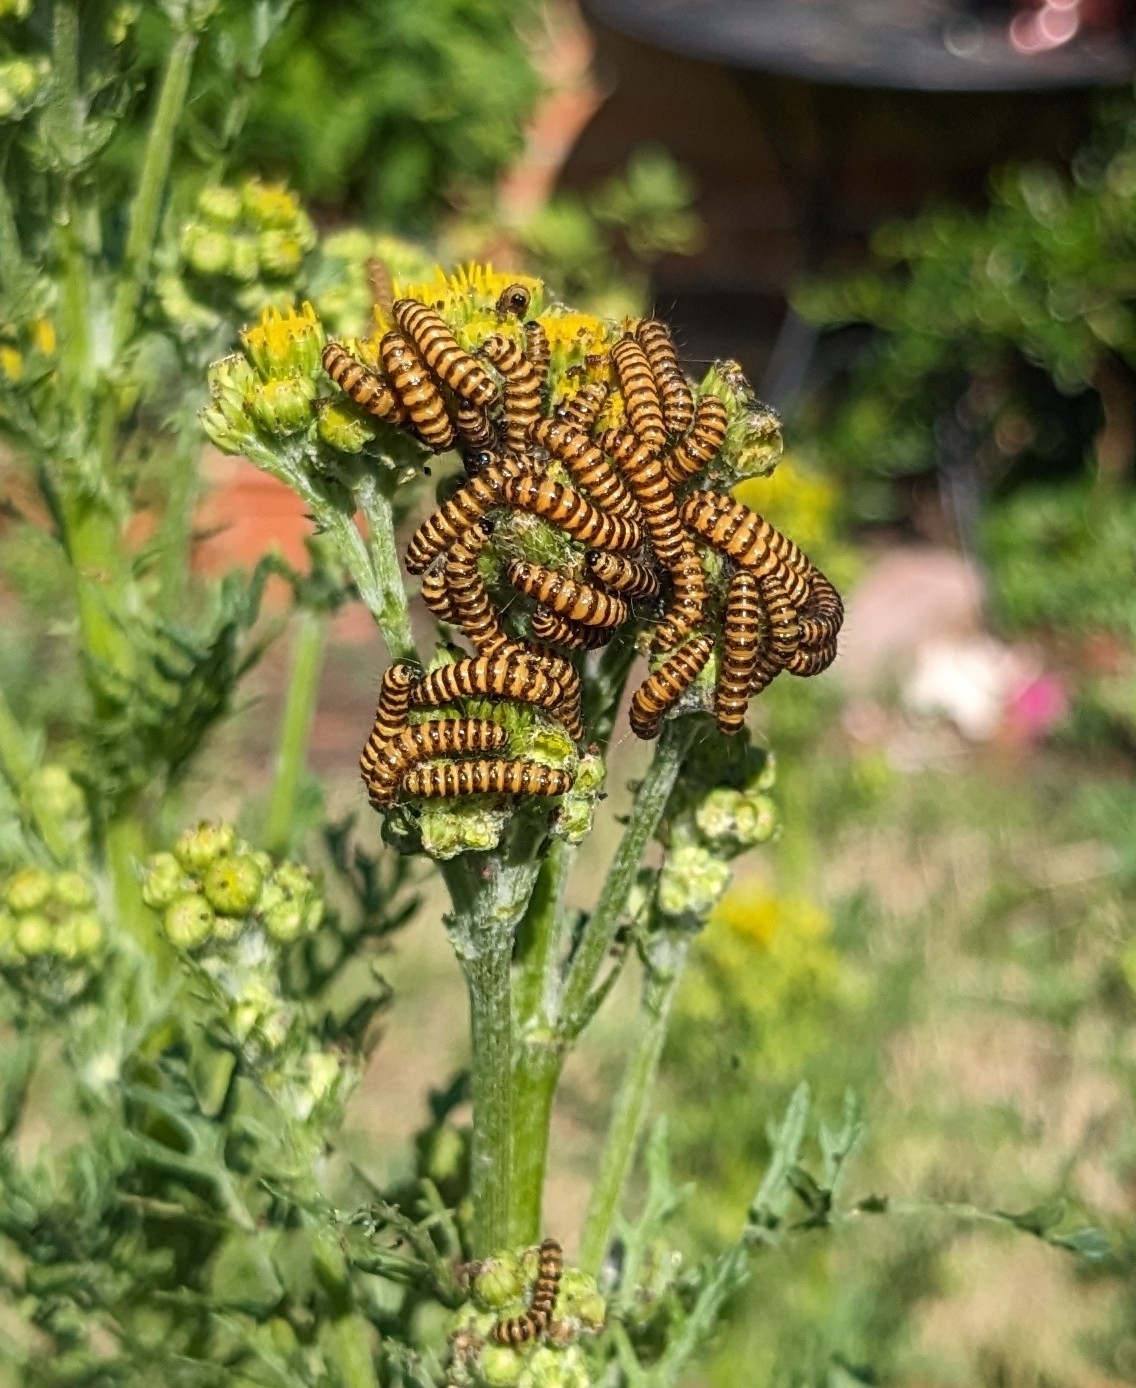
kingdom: Animalia
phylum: Arthropoda
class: Insecta
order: Lepidoptera
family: Erebidae
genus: Tyria
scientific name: Tyria jacobaeae
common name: Cinnabar
